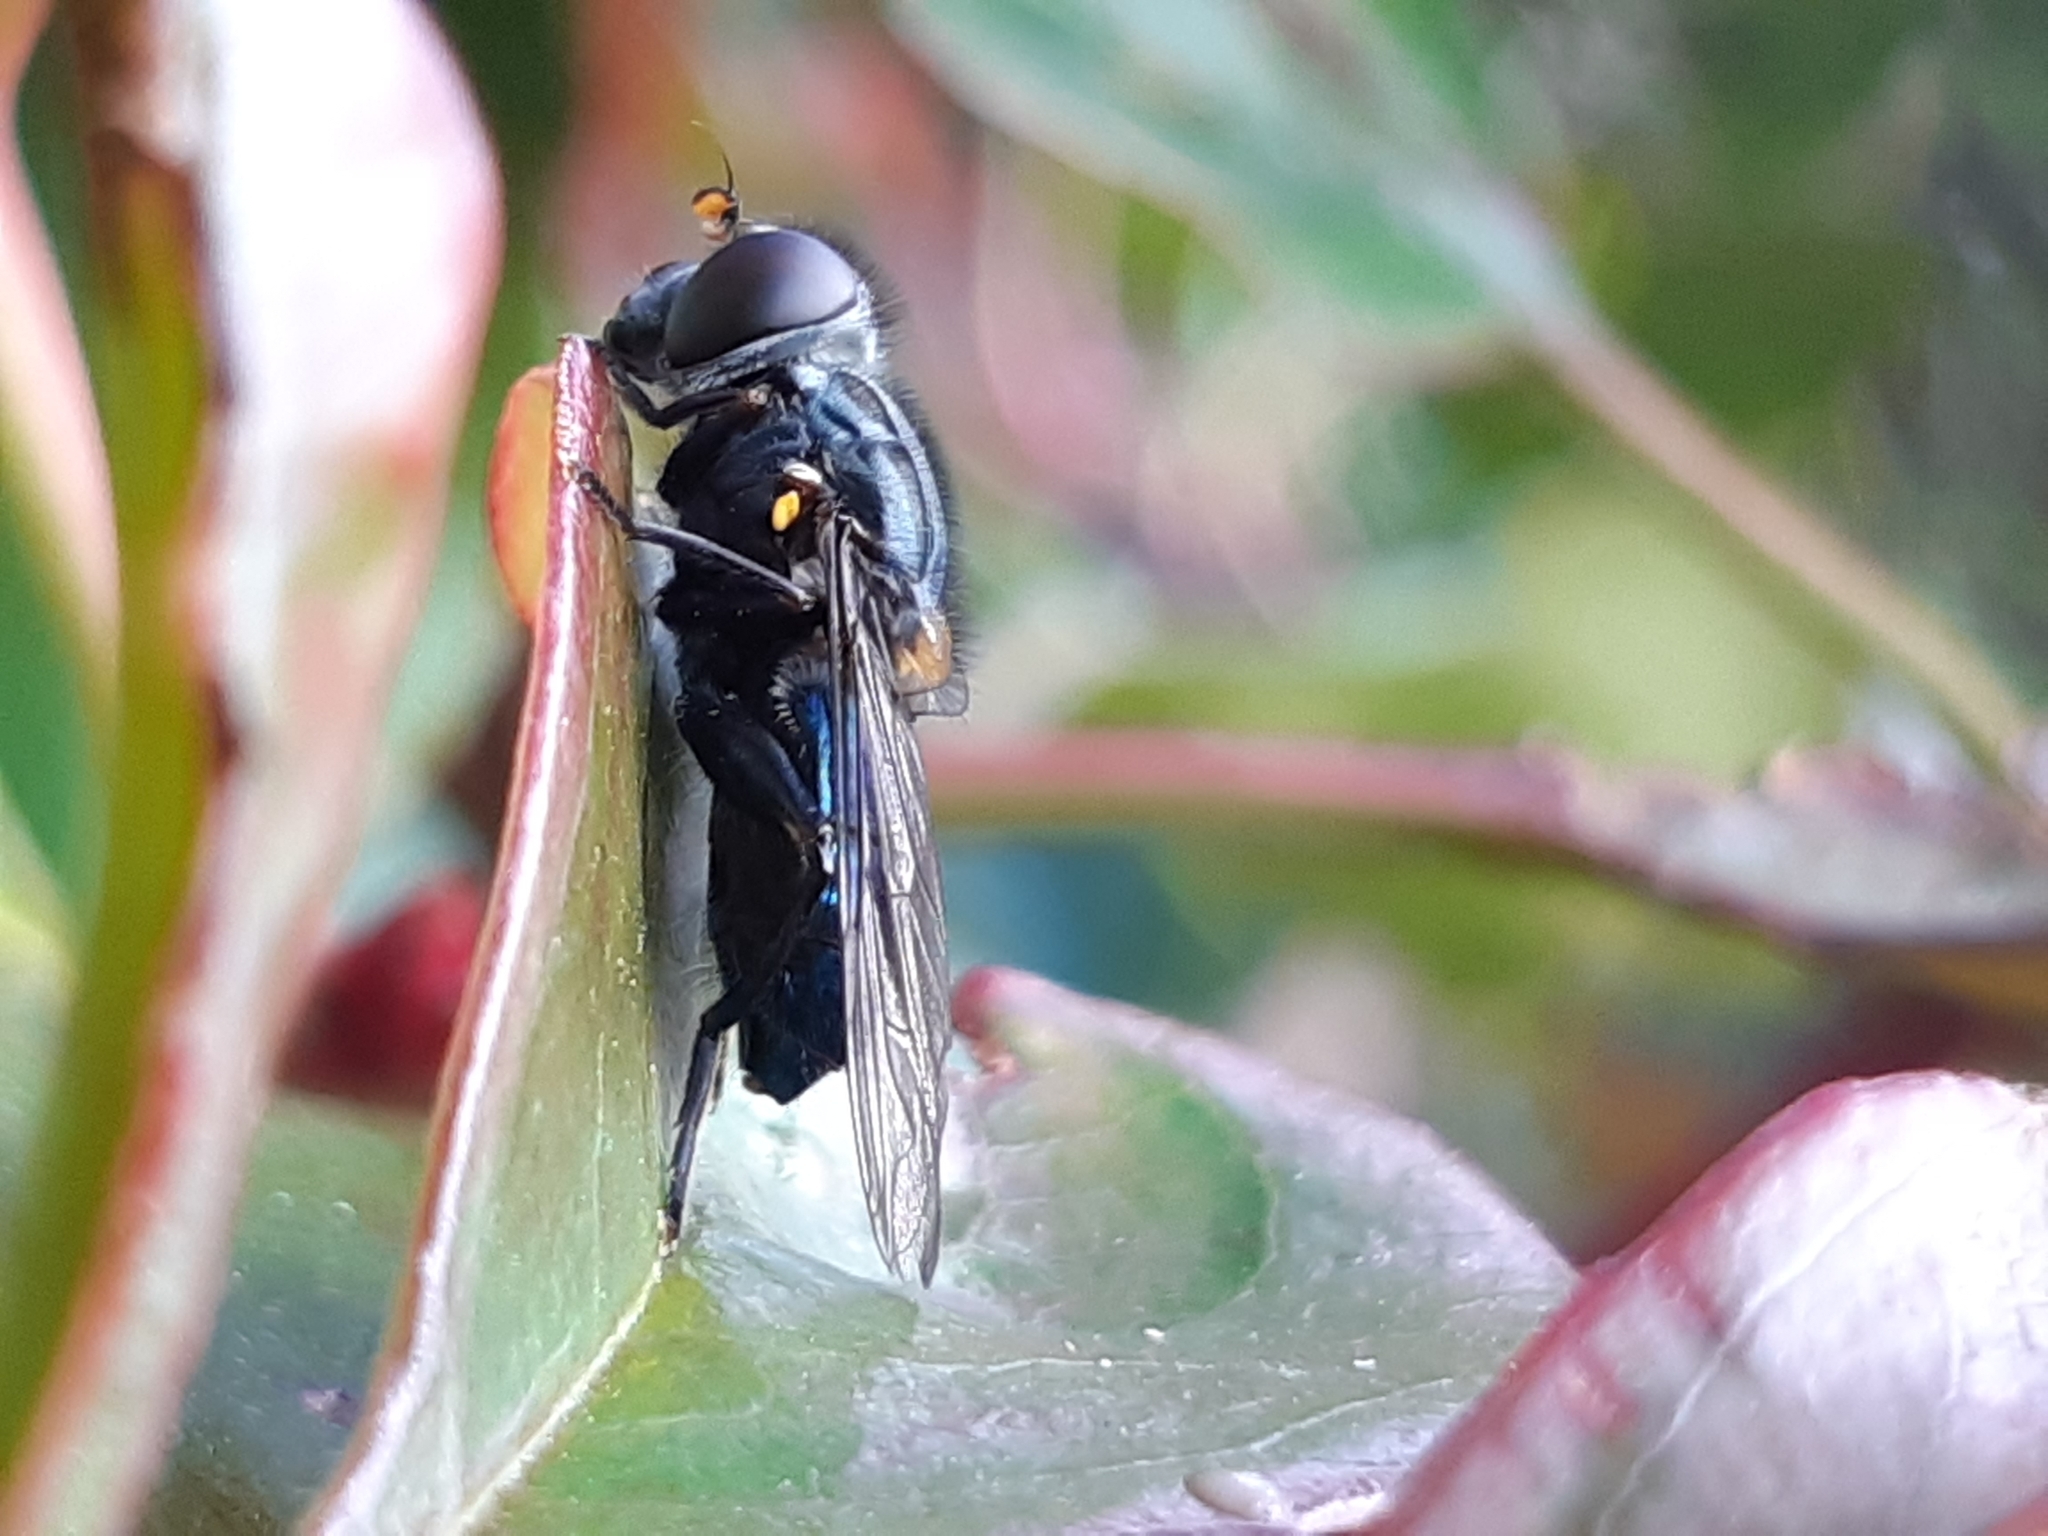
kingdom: Animalia
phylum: Arthropoda
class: Insecta
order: Diptera
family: Syrphidae
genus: Helophilus
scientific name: Helophilus hochstetteri
